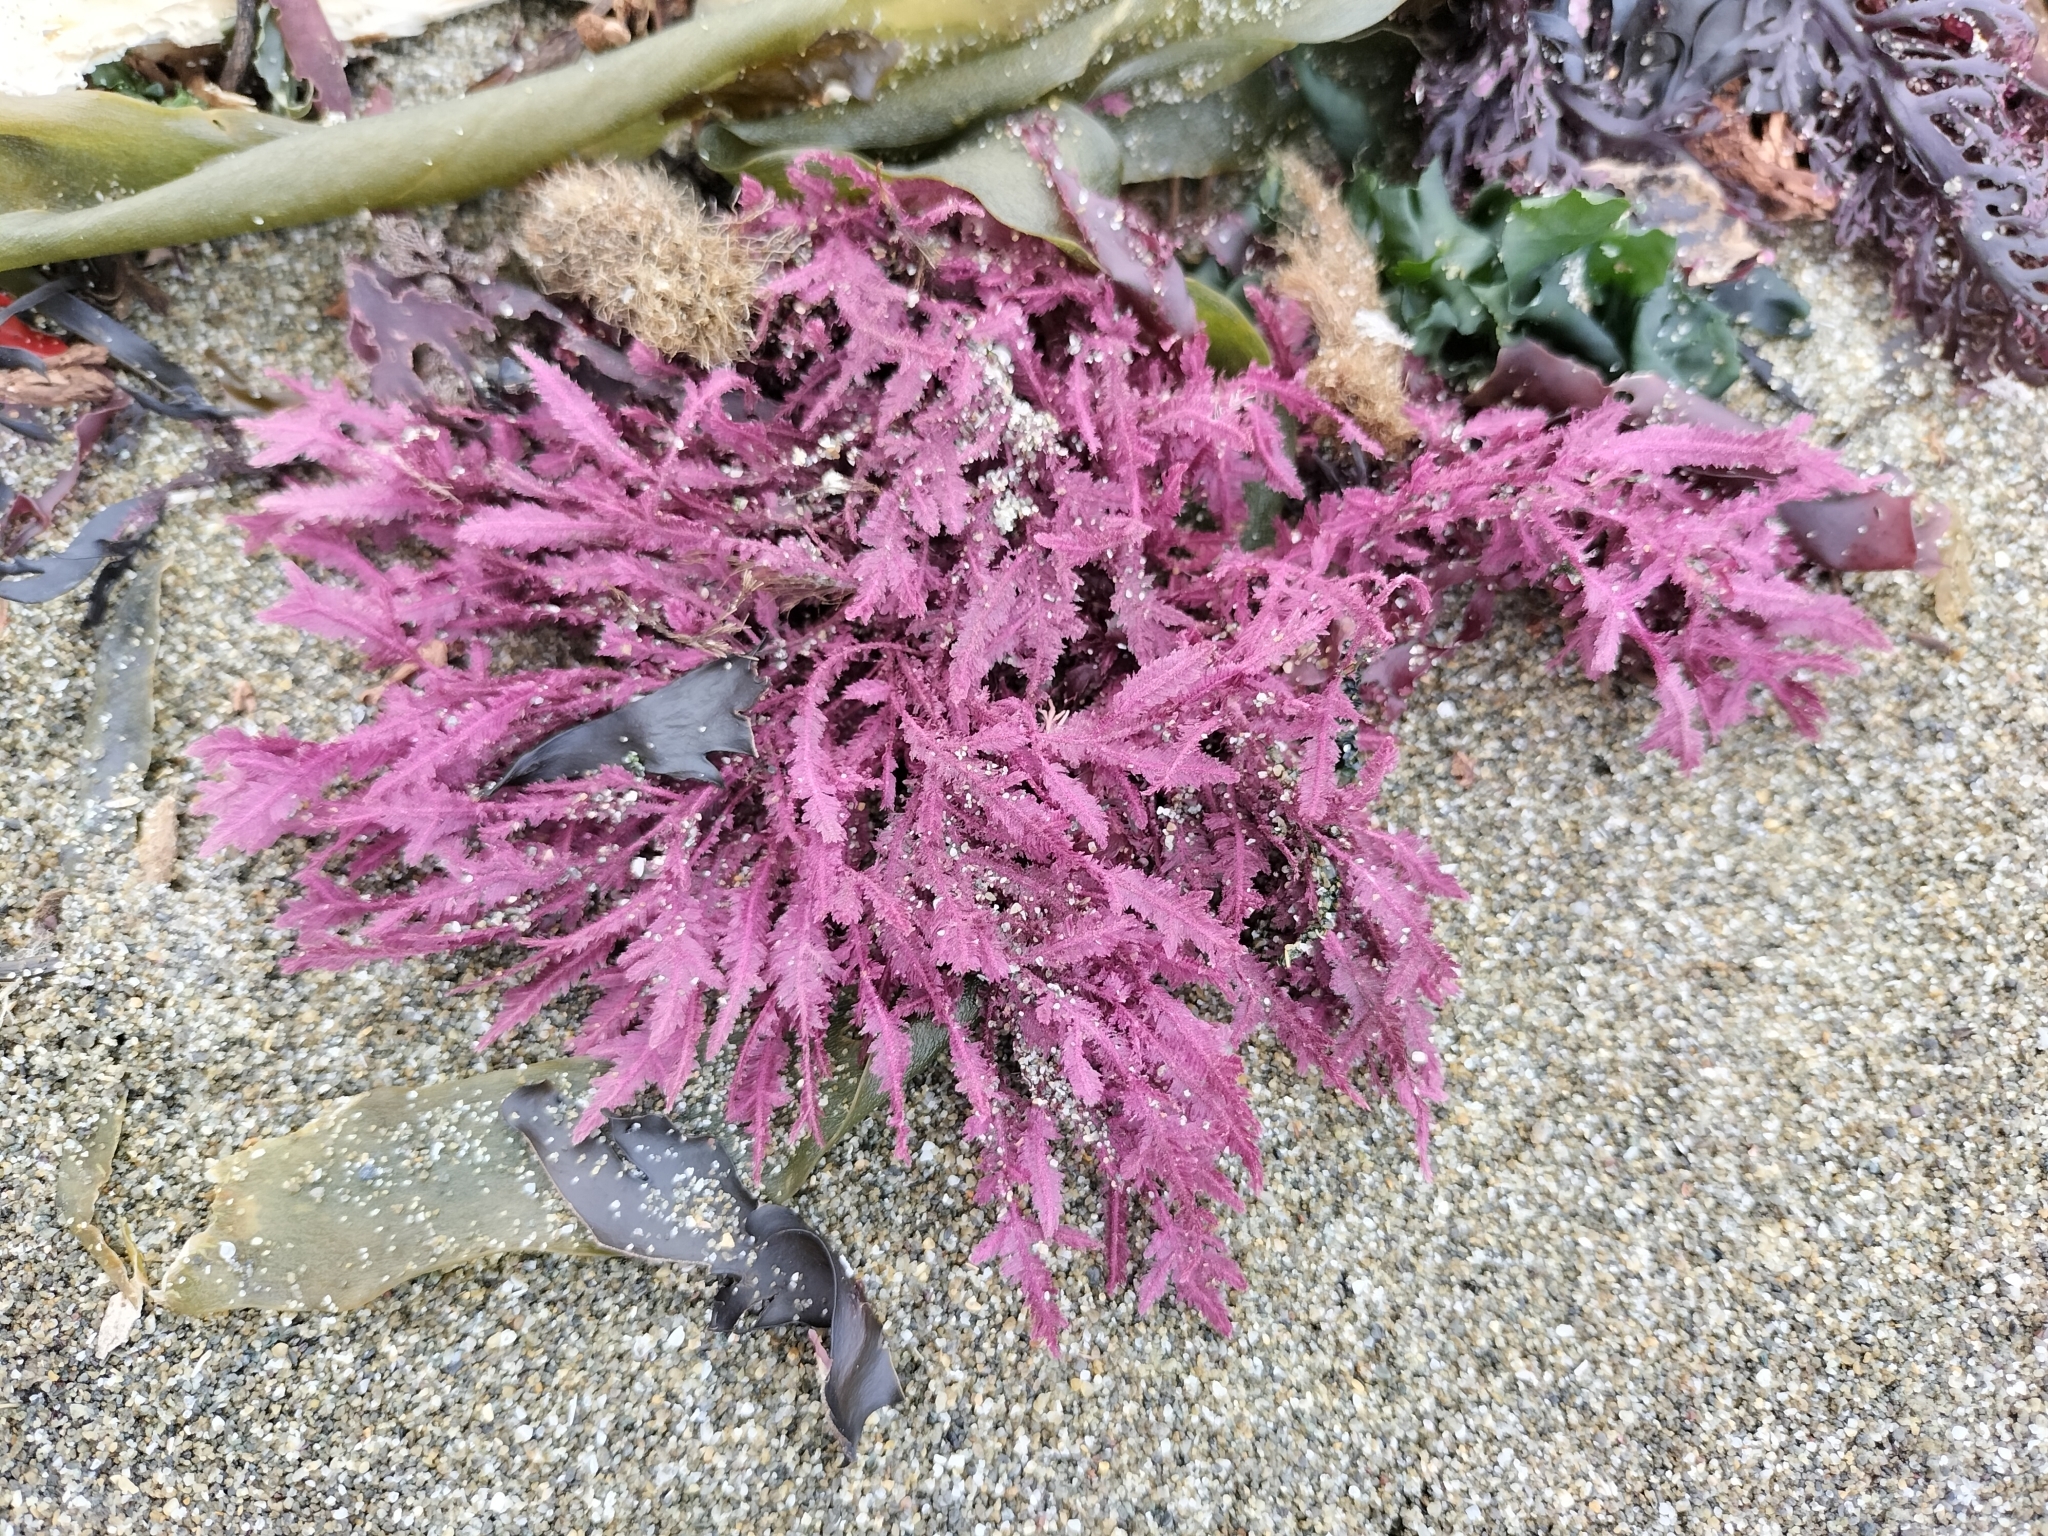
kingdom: Plantae
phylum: Rhodophyta
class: Florideophyceae
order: Ceramiales
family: Callithamniaceae
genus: Euptilota
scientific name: Euptilota formosissima
